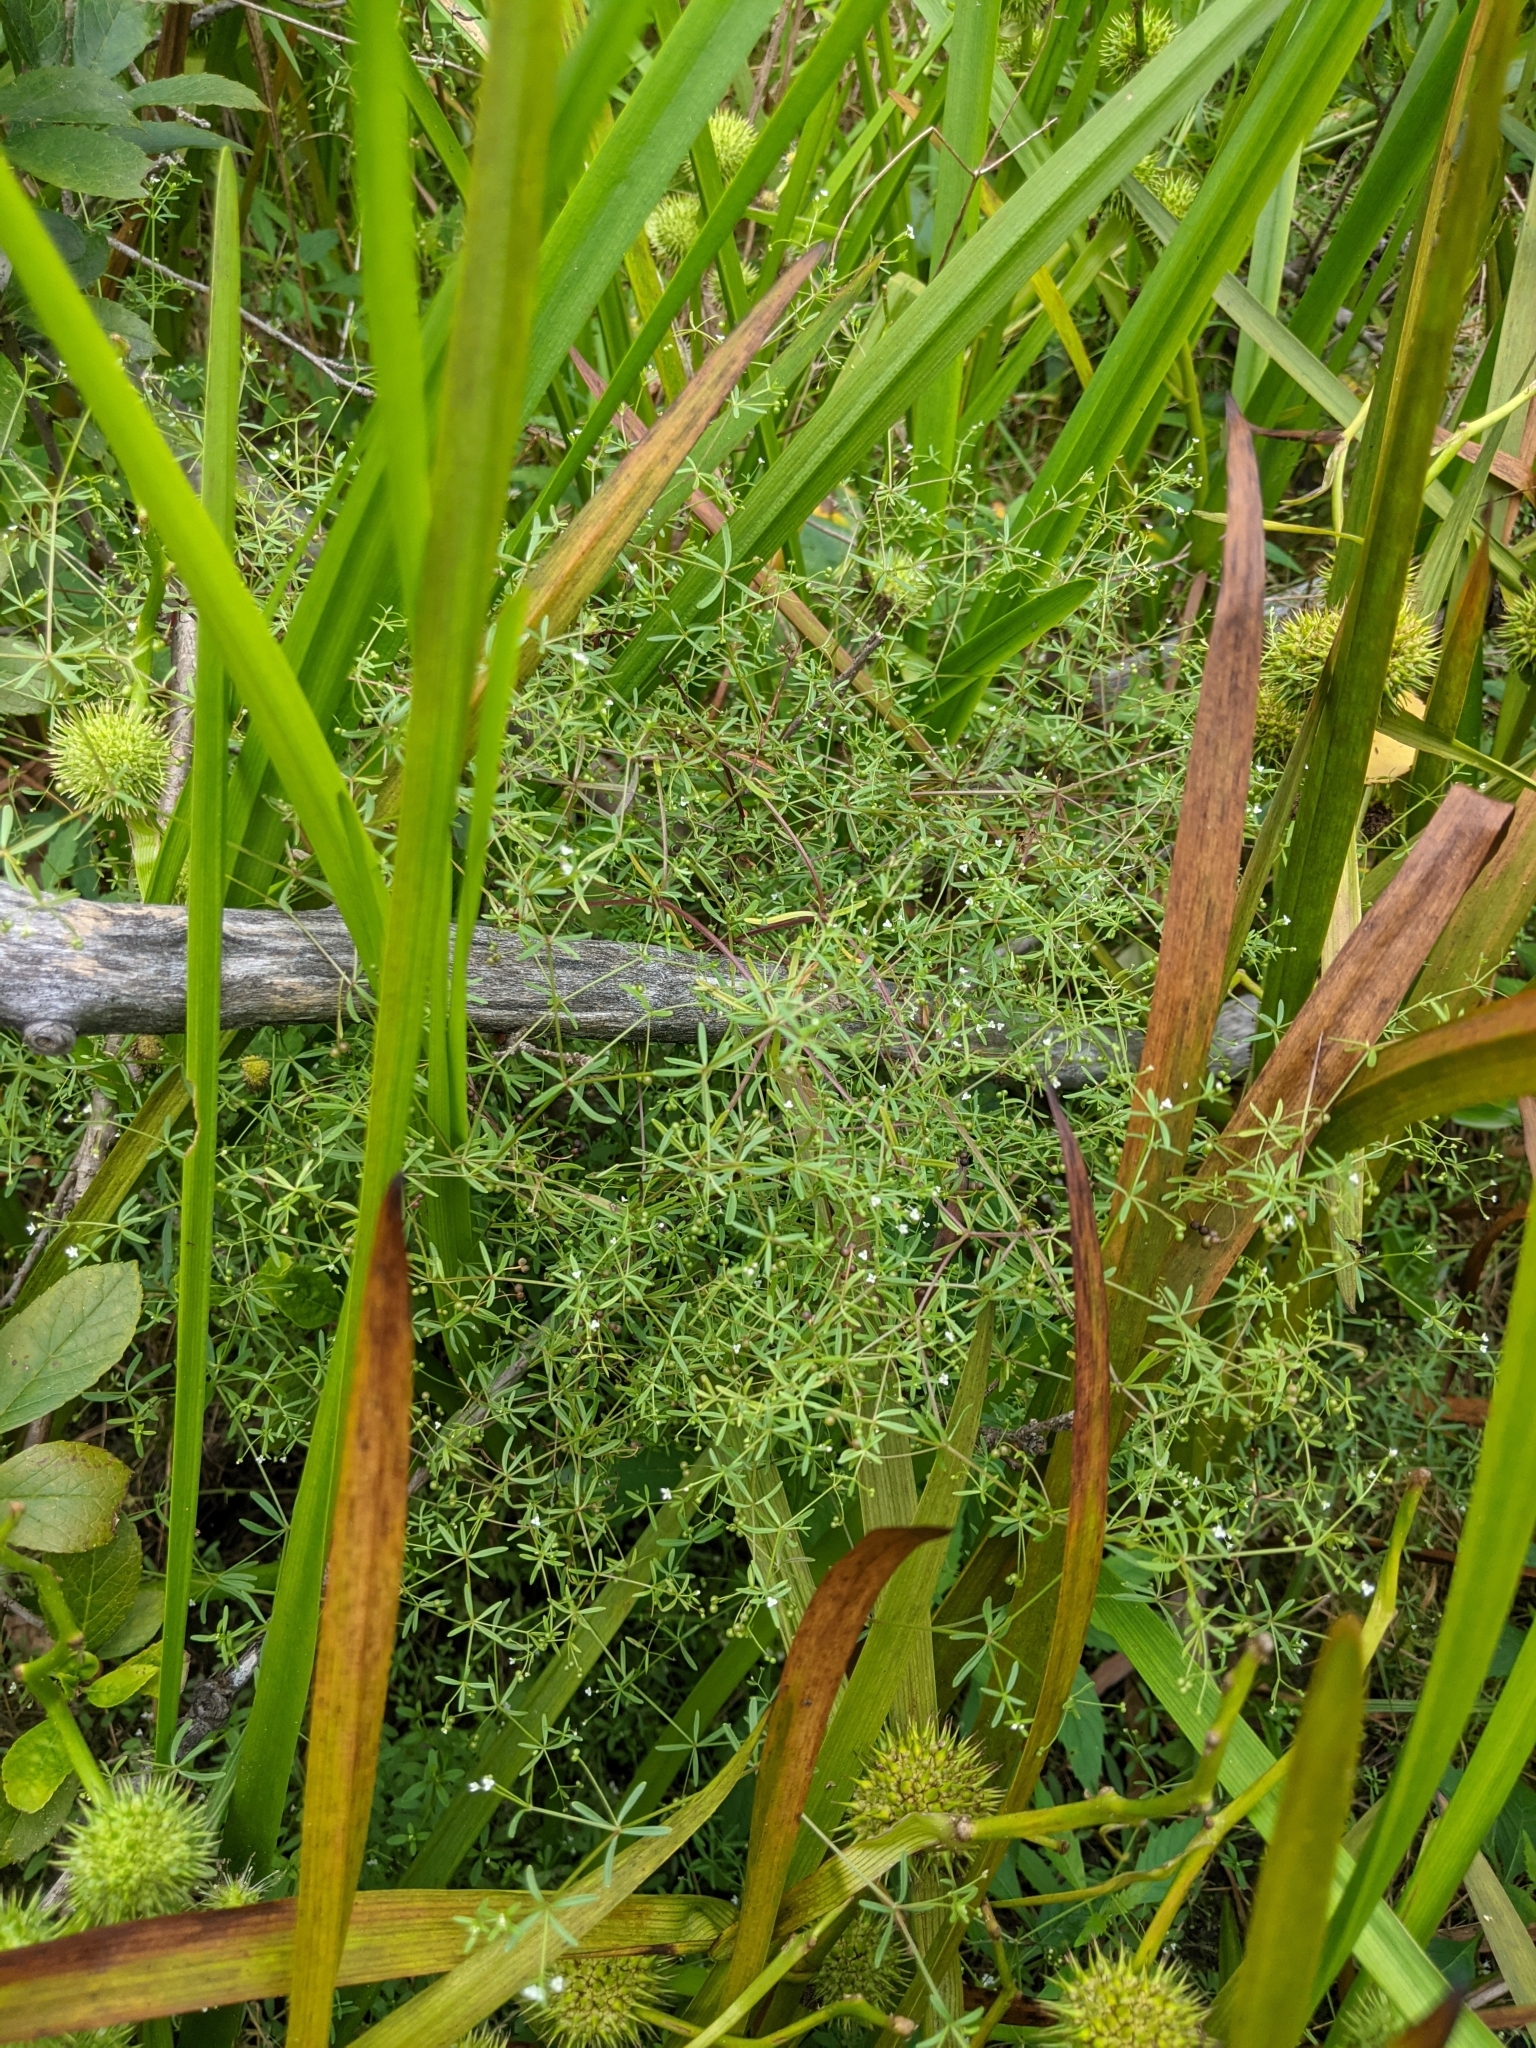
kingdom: Plantae
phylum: Tracheophyta
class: Magnoliopsida
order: Gentianales
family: Rubiaceae
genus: Galium
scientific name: Galium trifidum
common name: Small bedstraw
